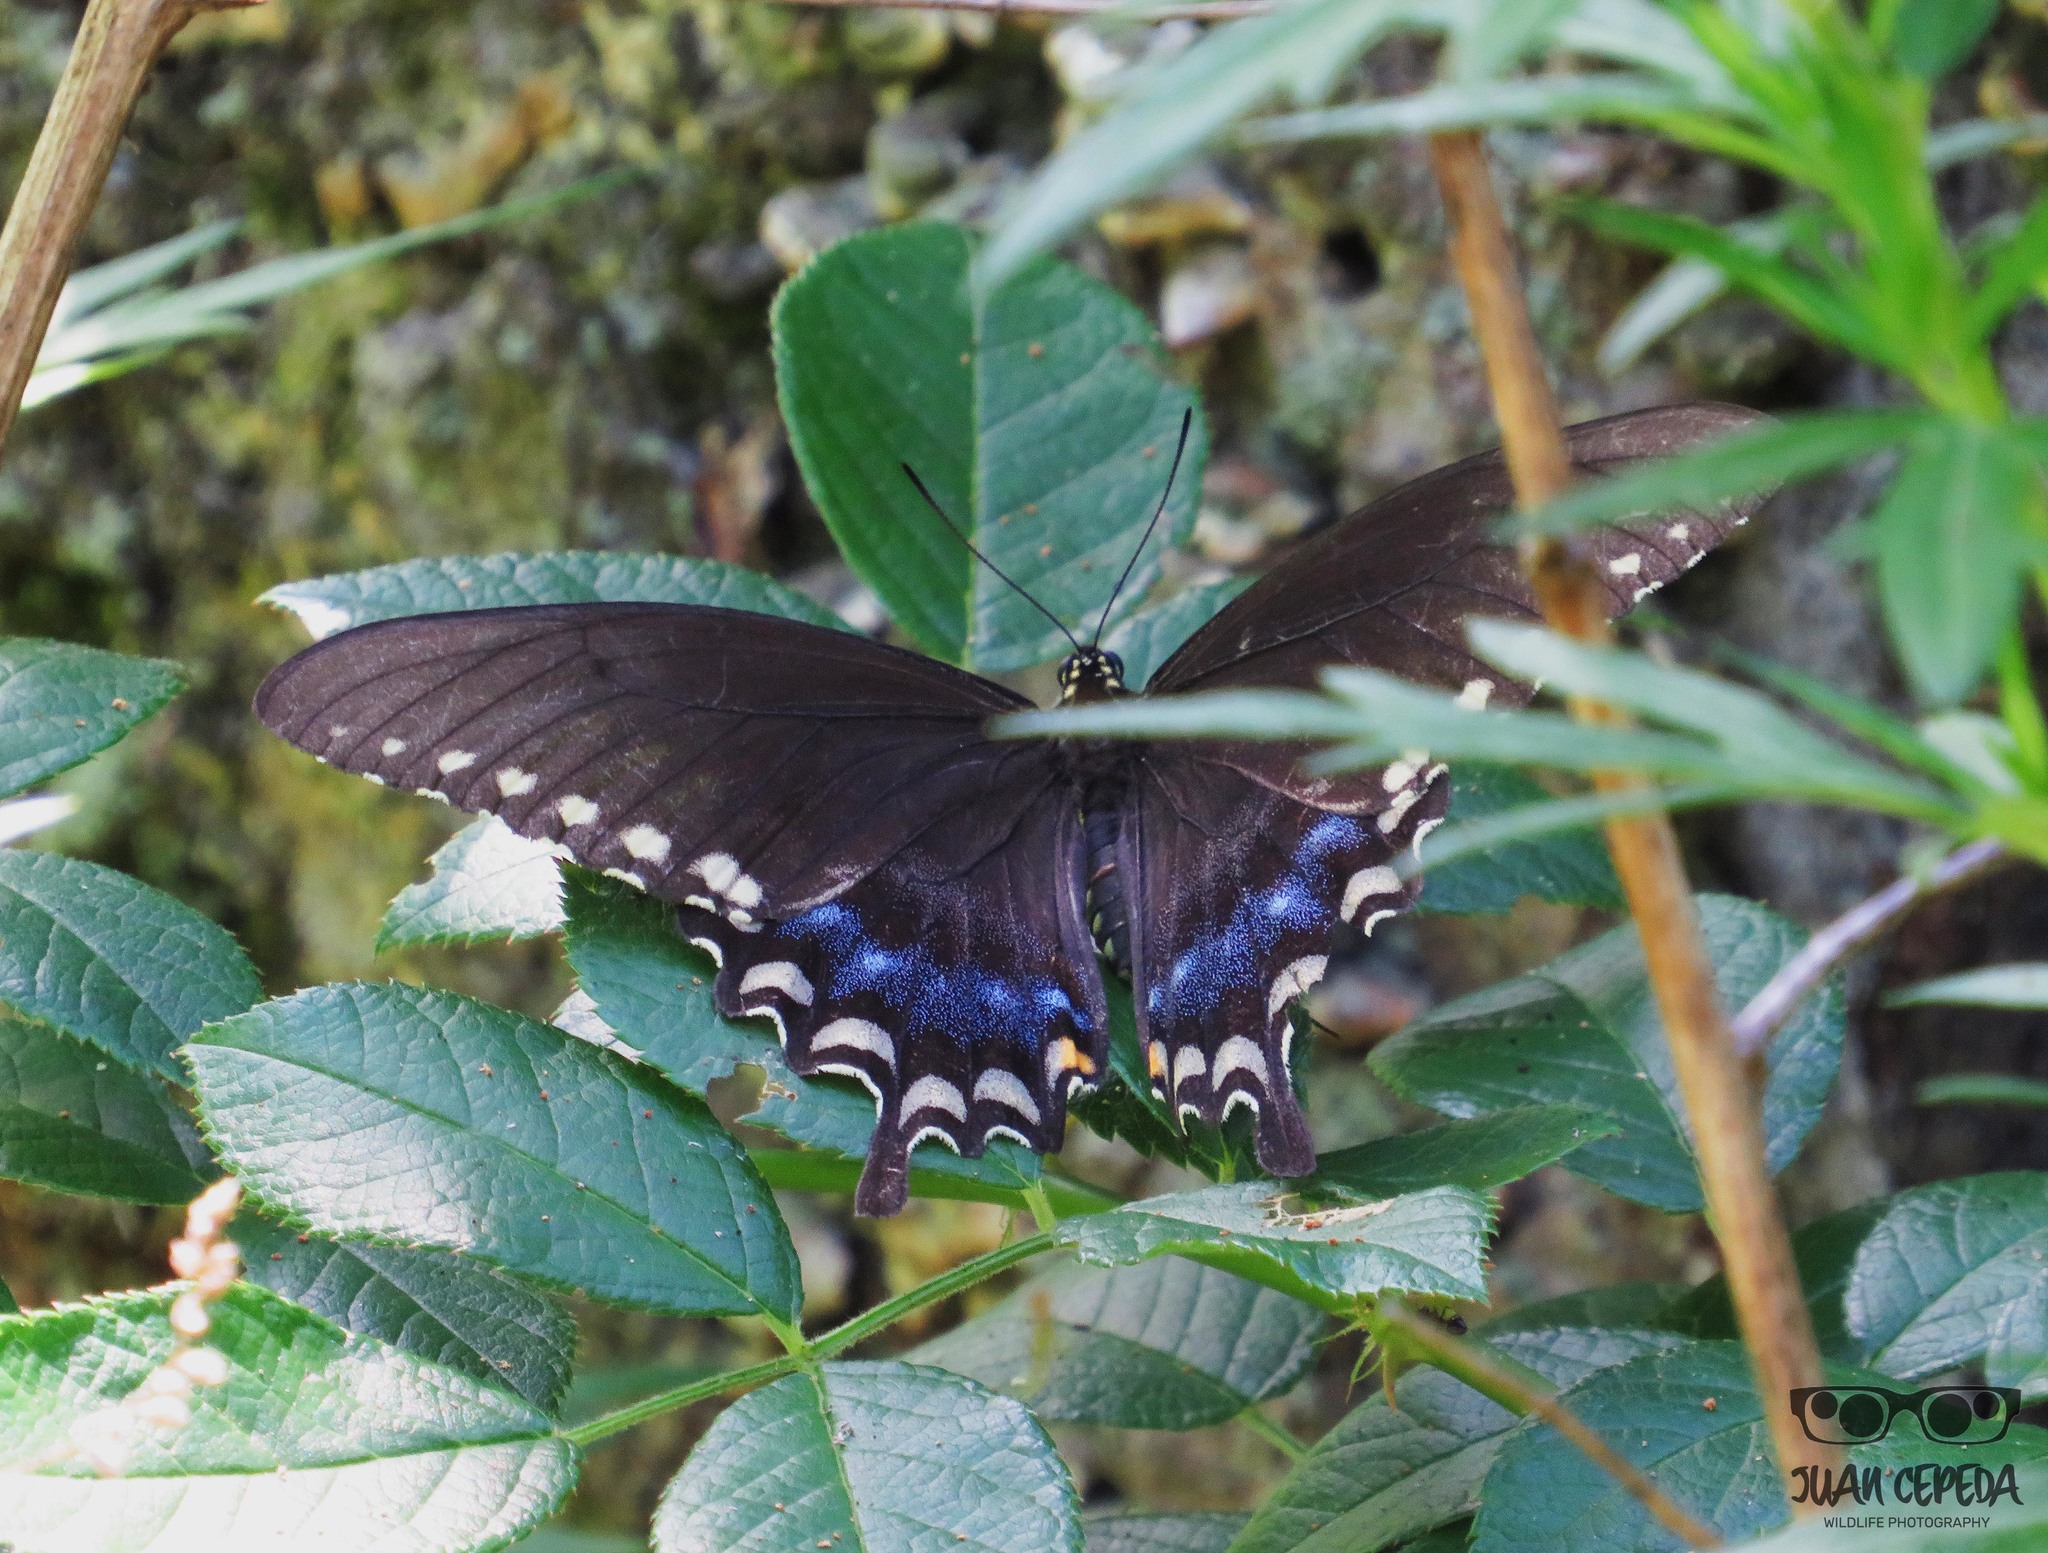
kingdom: Animalia
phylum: Arthropoda
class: Insecta
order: Lepidoptera
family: Papilionidae
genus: Papilio
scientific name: Papilio troilus
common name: Spicebush swallowtail
